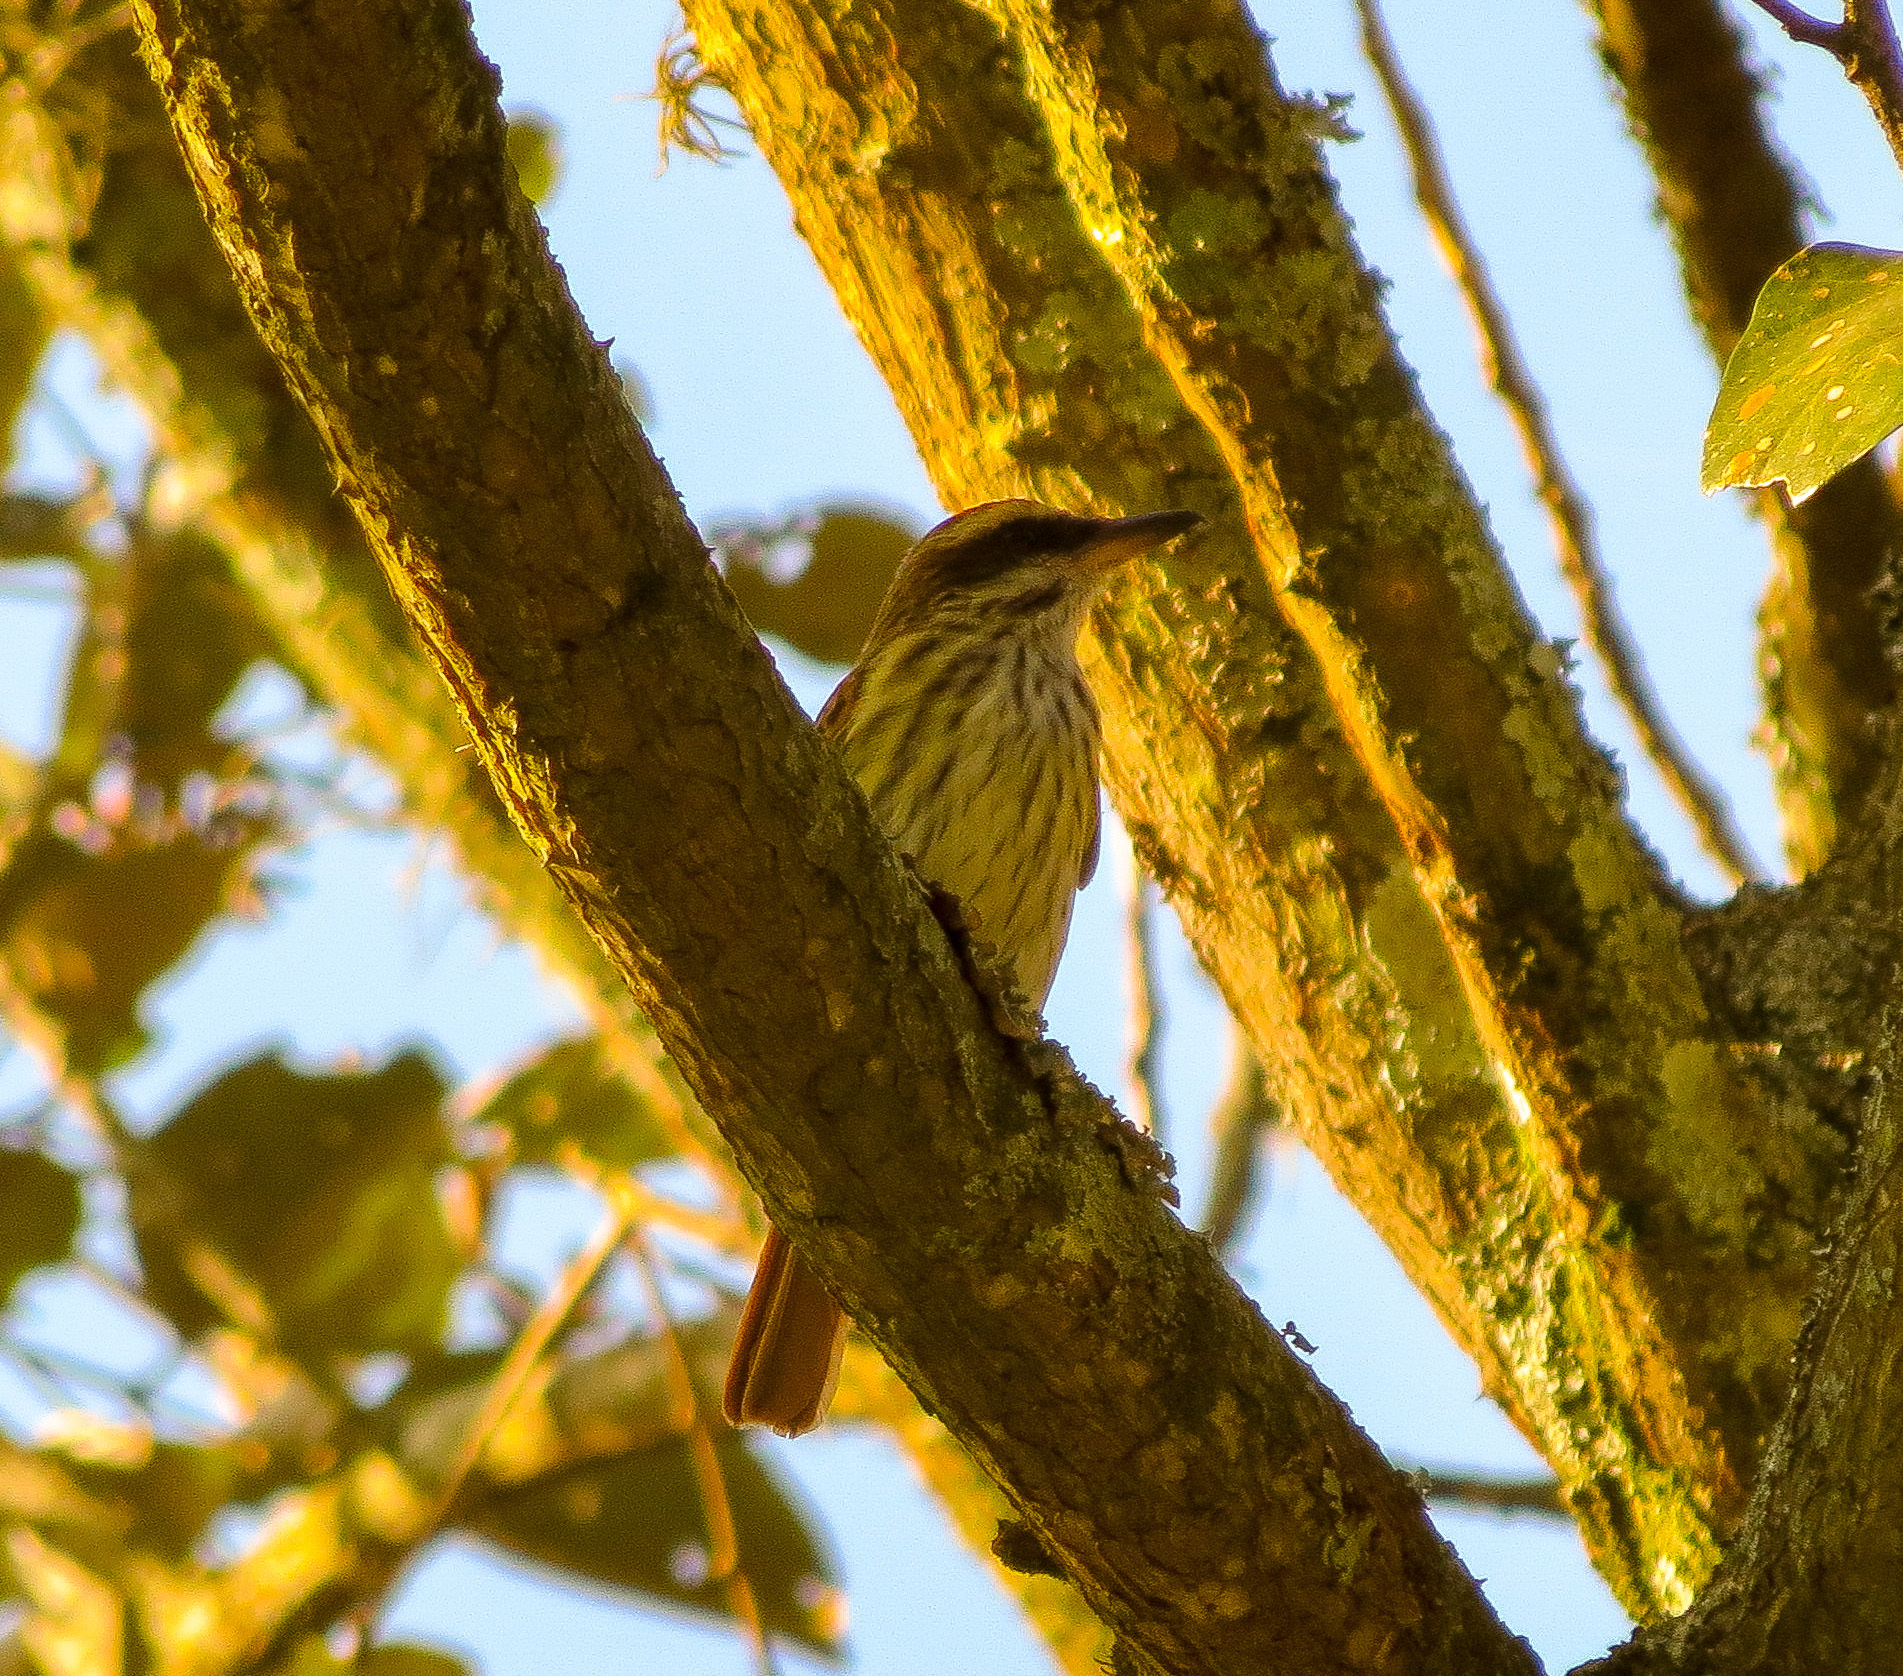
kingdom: Animalia
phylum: Chordata
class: Aves
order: Passeriformes
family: Tyrannidae
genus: Myiodynastes
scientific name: Myiodynastes maculatus
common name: Streaked flycatcher
